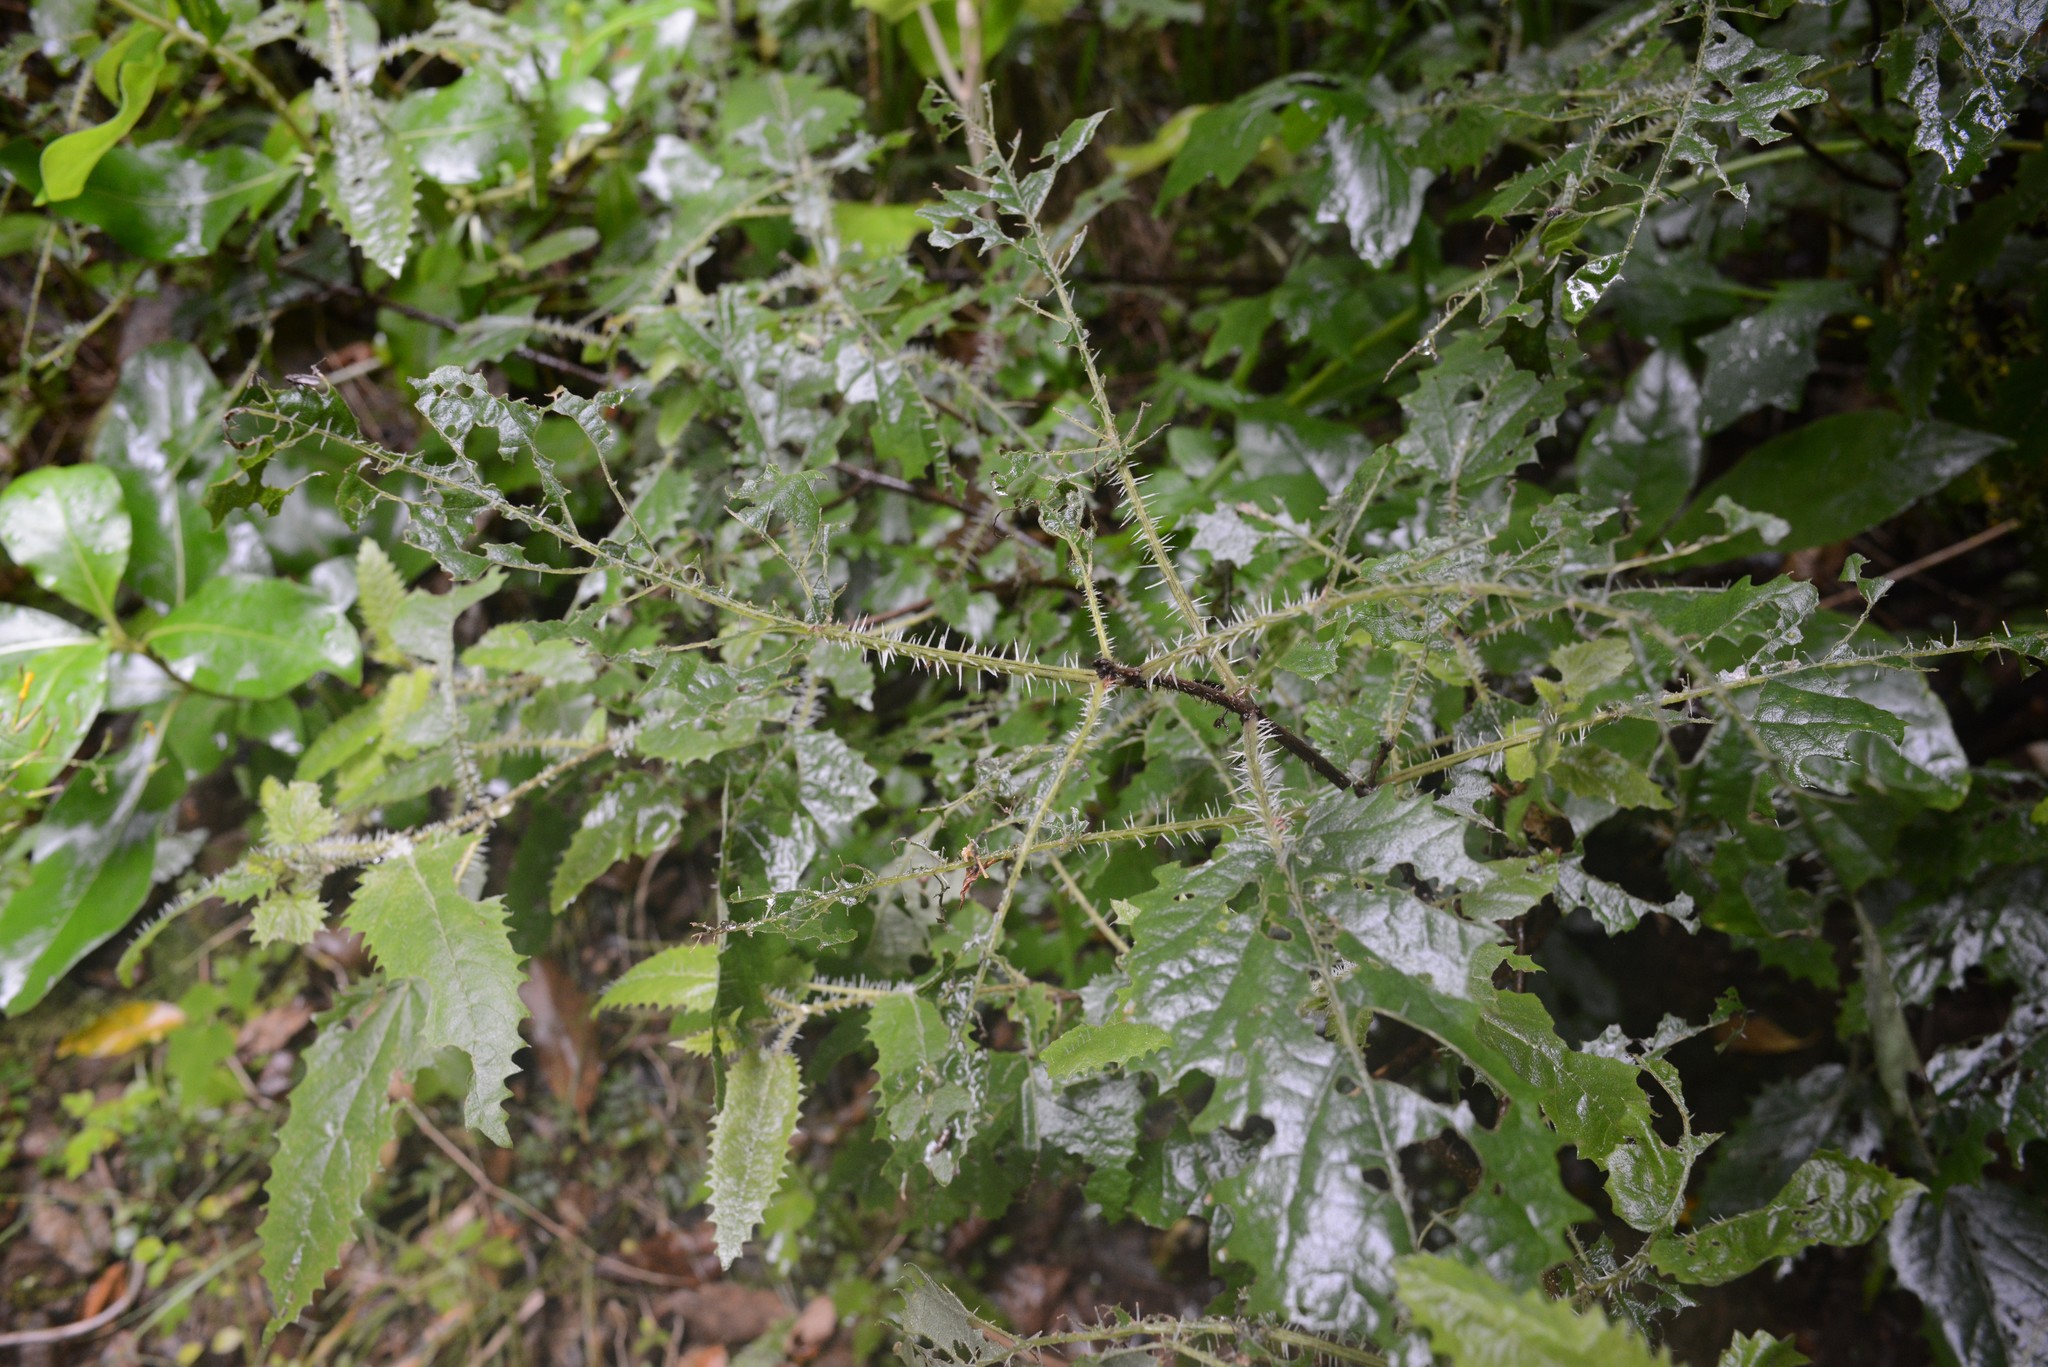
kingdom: Plantae
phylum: Tracheophyta
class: Magnoliopsida
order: Rosales
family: Urticaceae
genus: Urtica
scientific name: Urtica ferox
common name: Tree nettle
